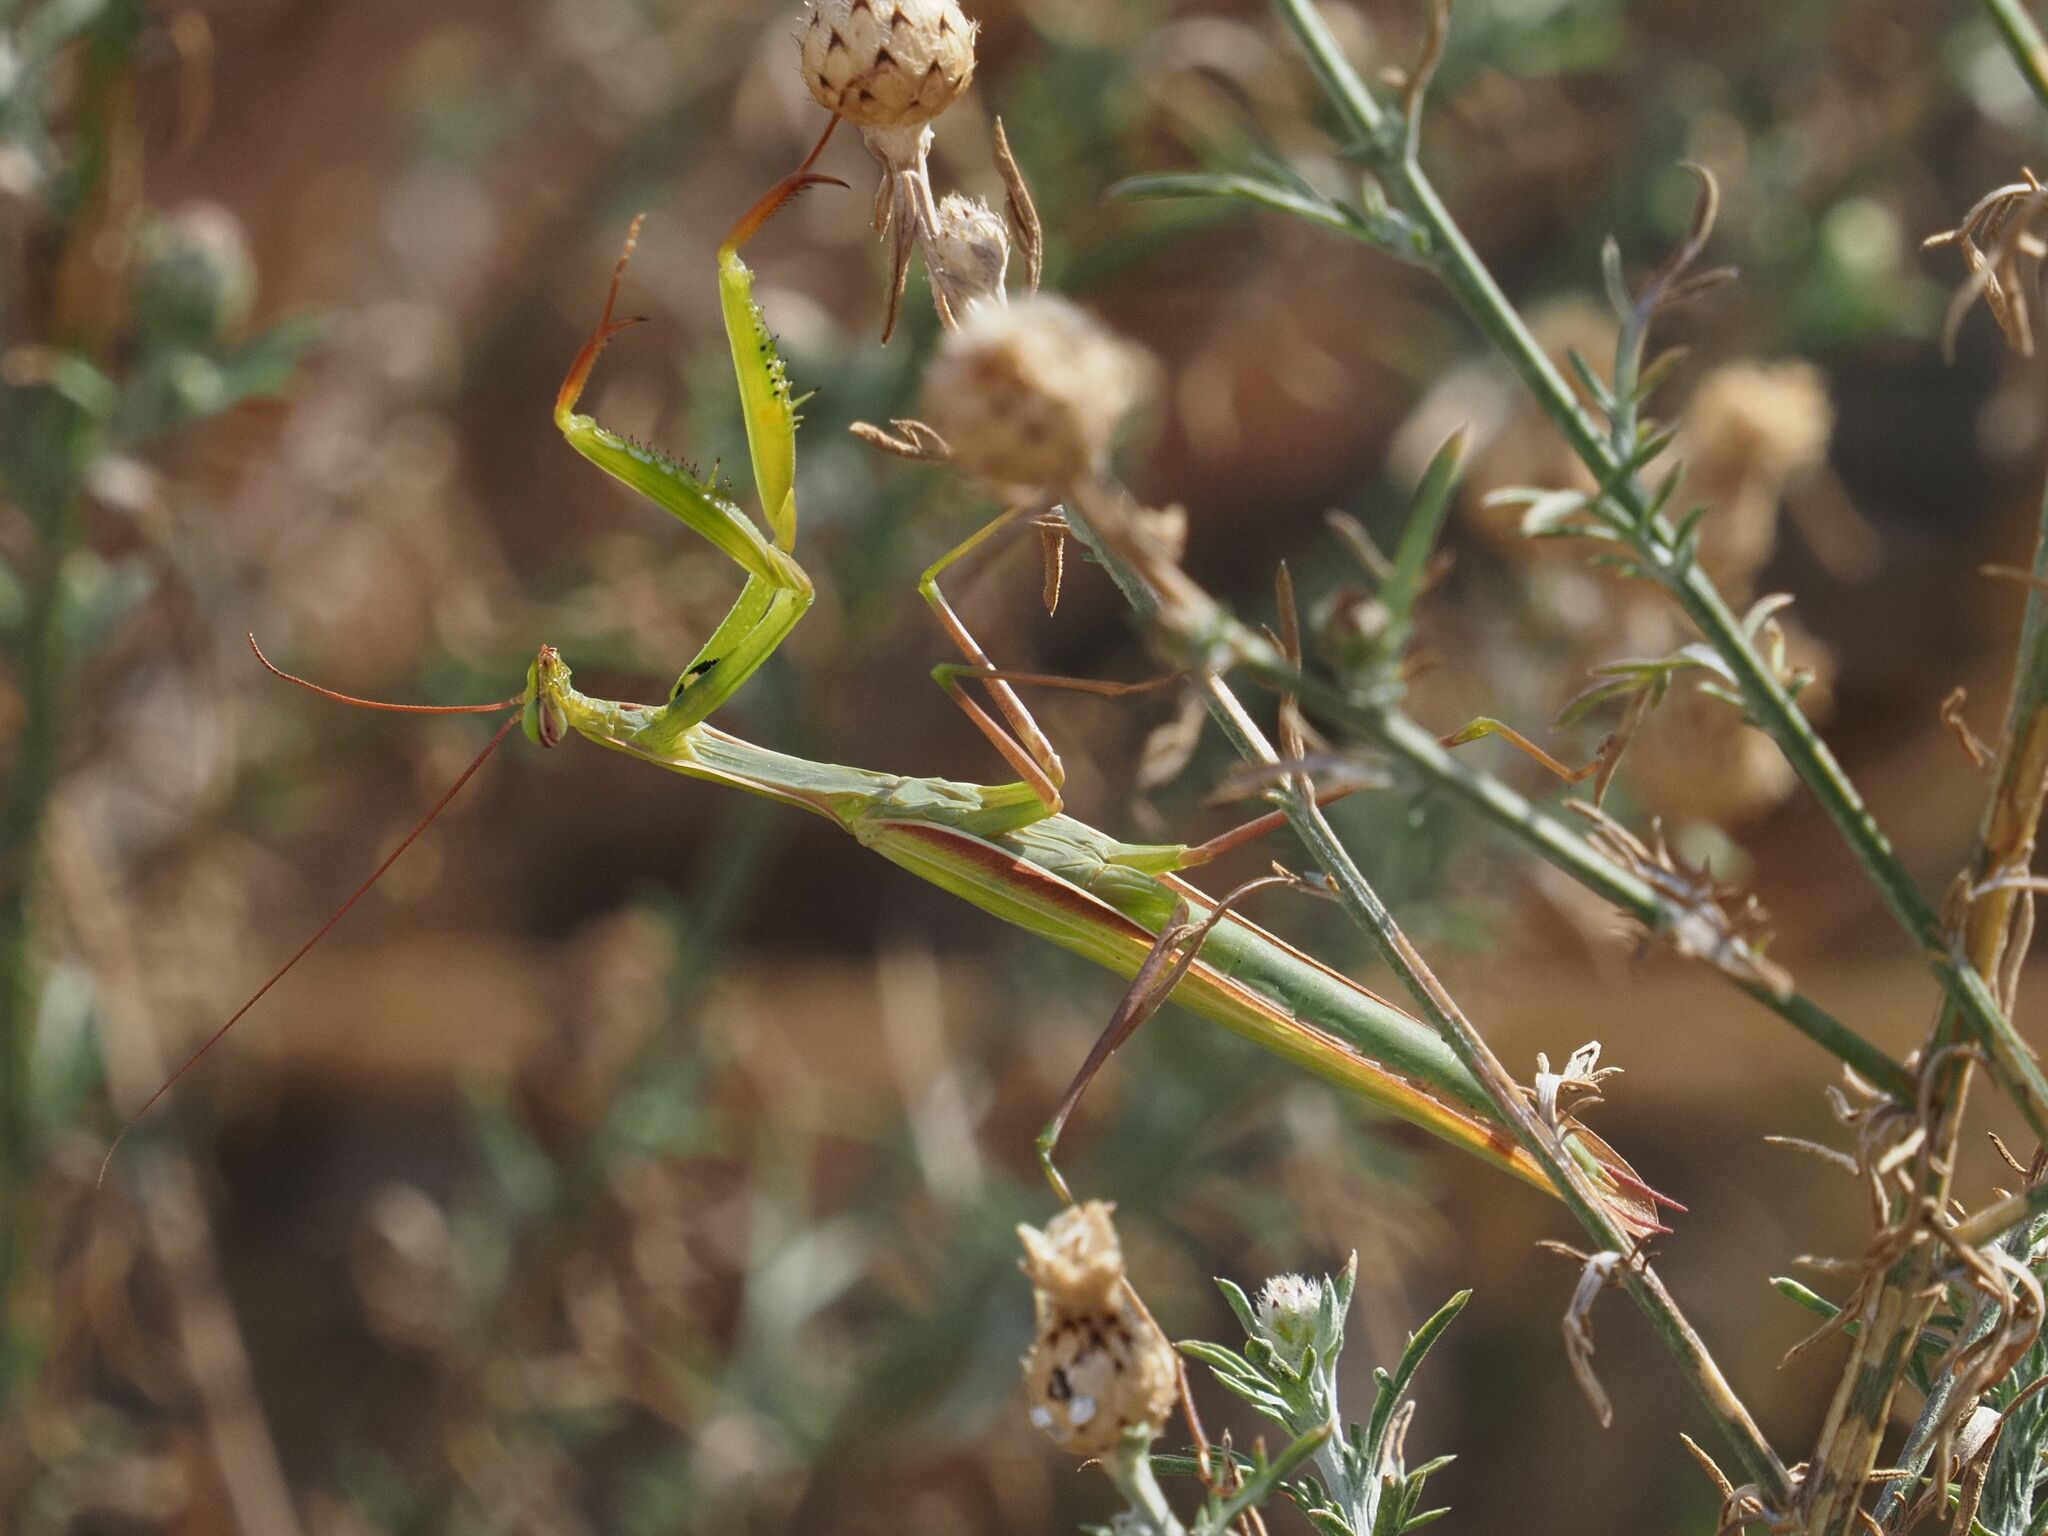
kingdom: Animalia
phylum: Arthropoda
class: Insecta
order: Mantodea
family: Mantidae
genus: Mantis
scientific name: Mantis religiosa
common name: Praying mantis
